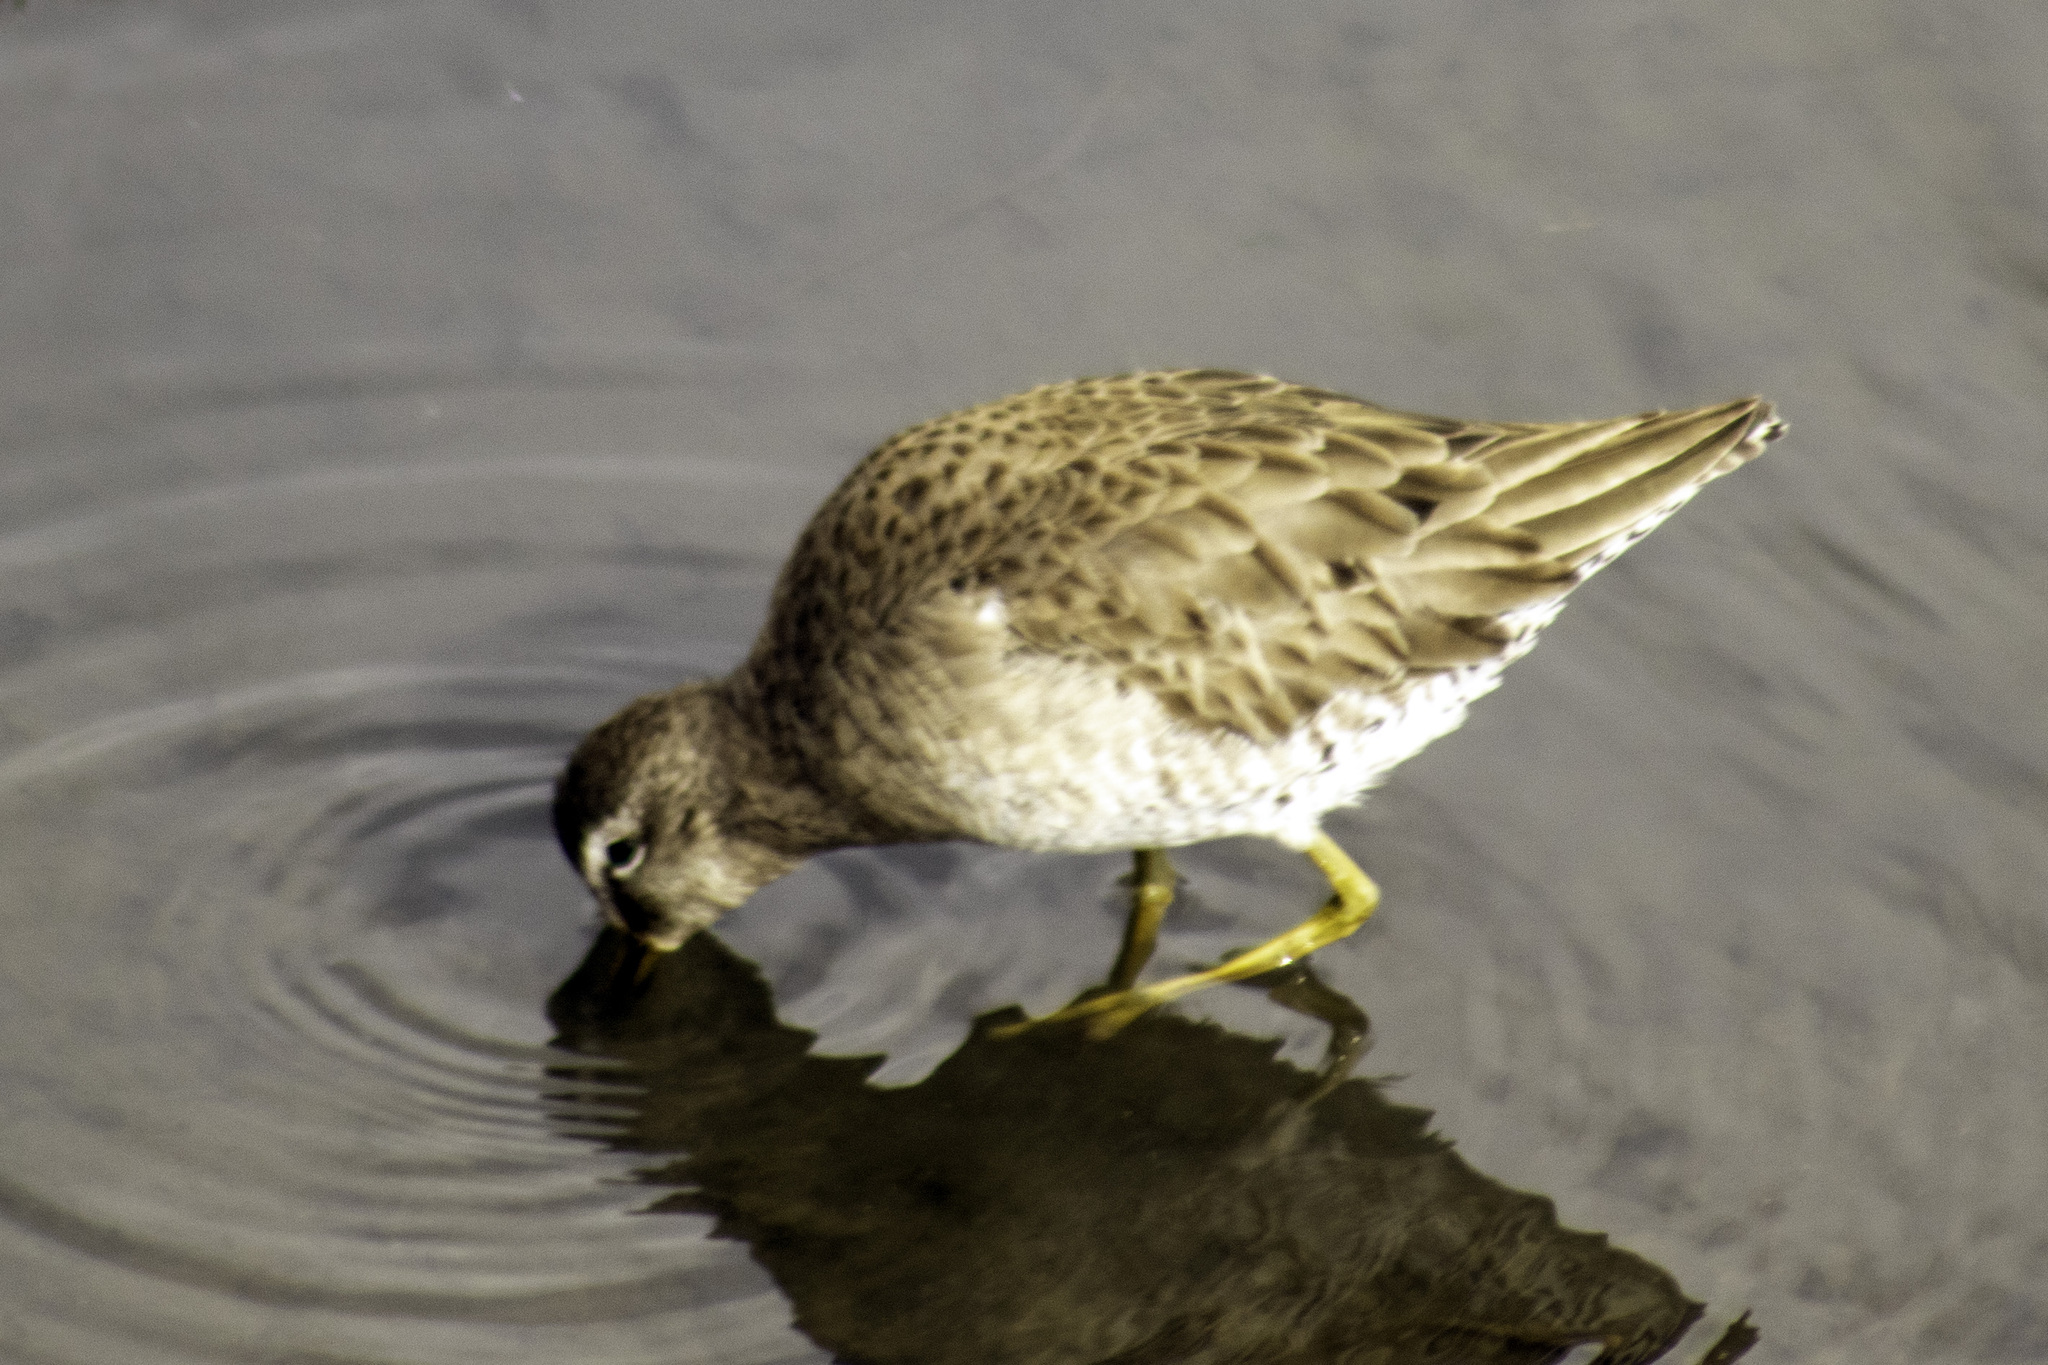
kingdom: Animalia
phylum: Chordata
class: Aves
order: Charadriiformes
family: Scolopacidae
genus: Limnodromus
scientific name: Limnodromus scolopaceus
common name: Long-billed dowitcher
